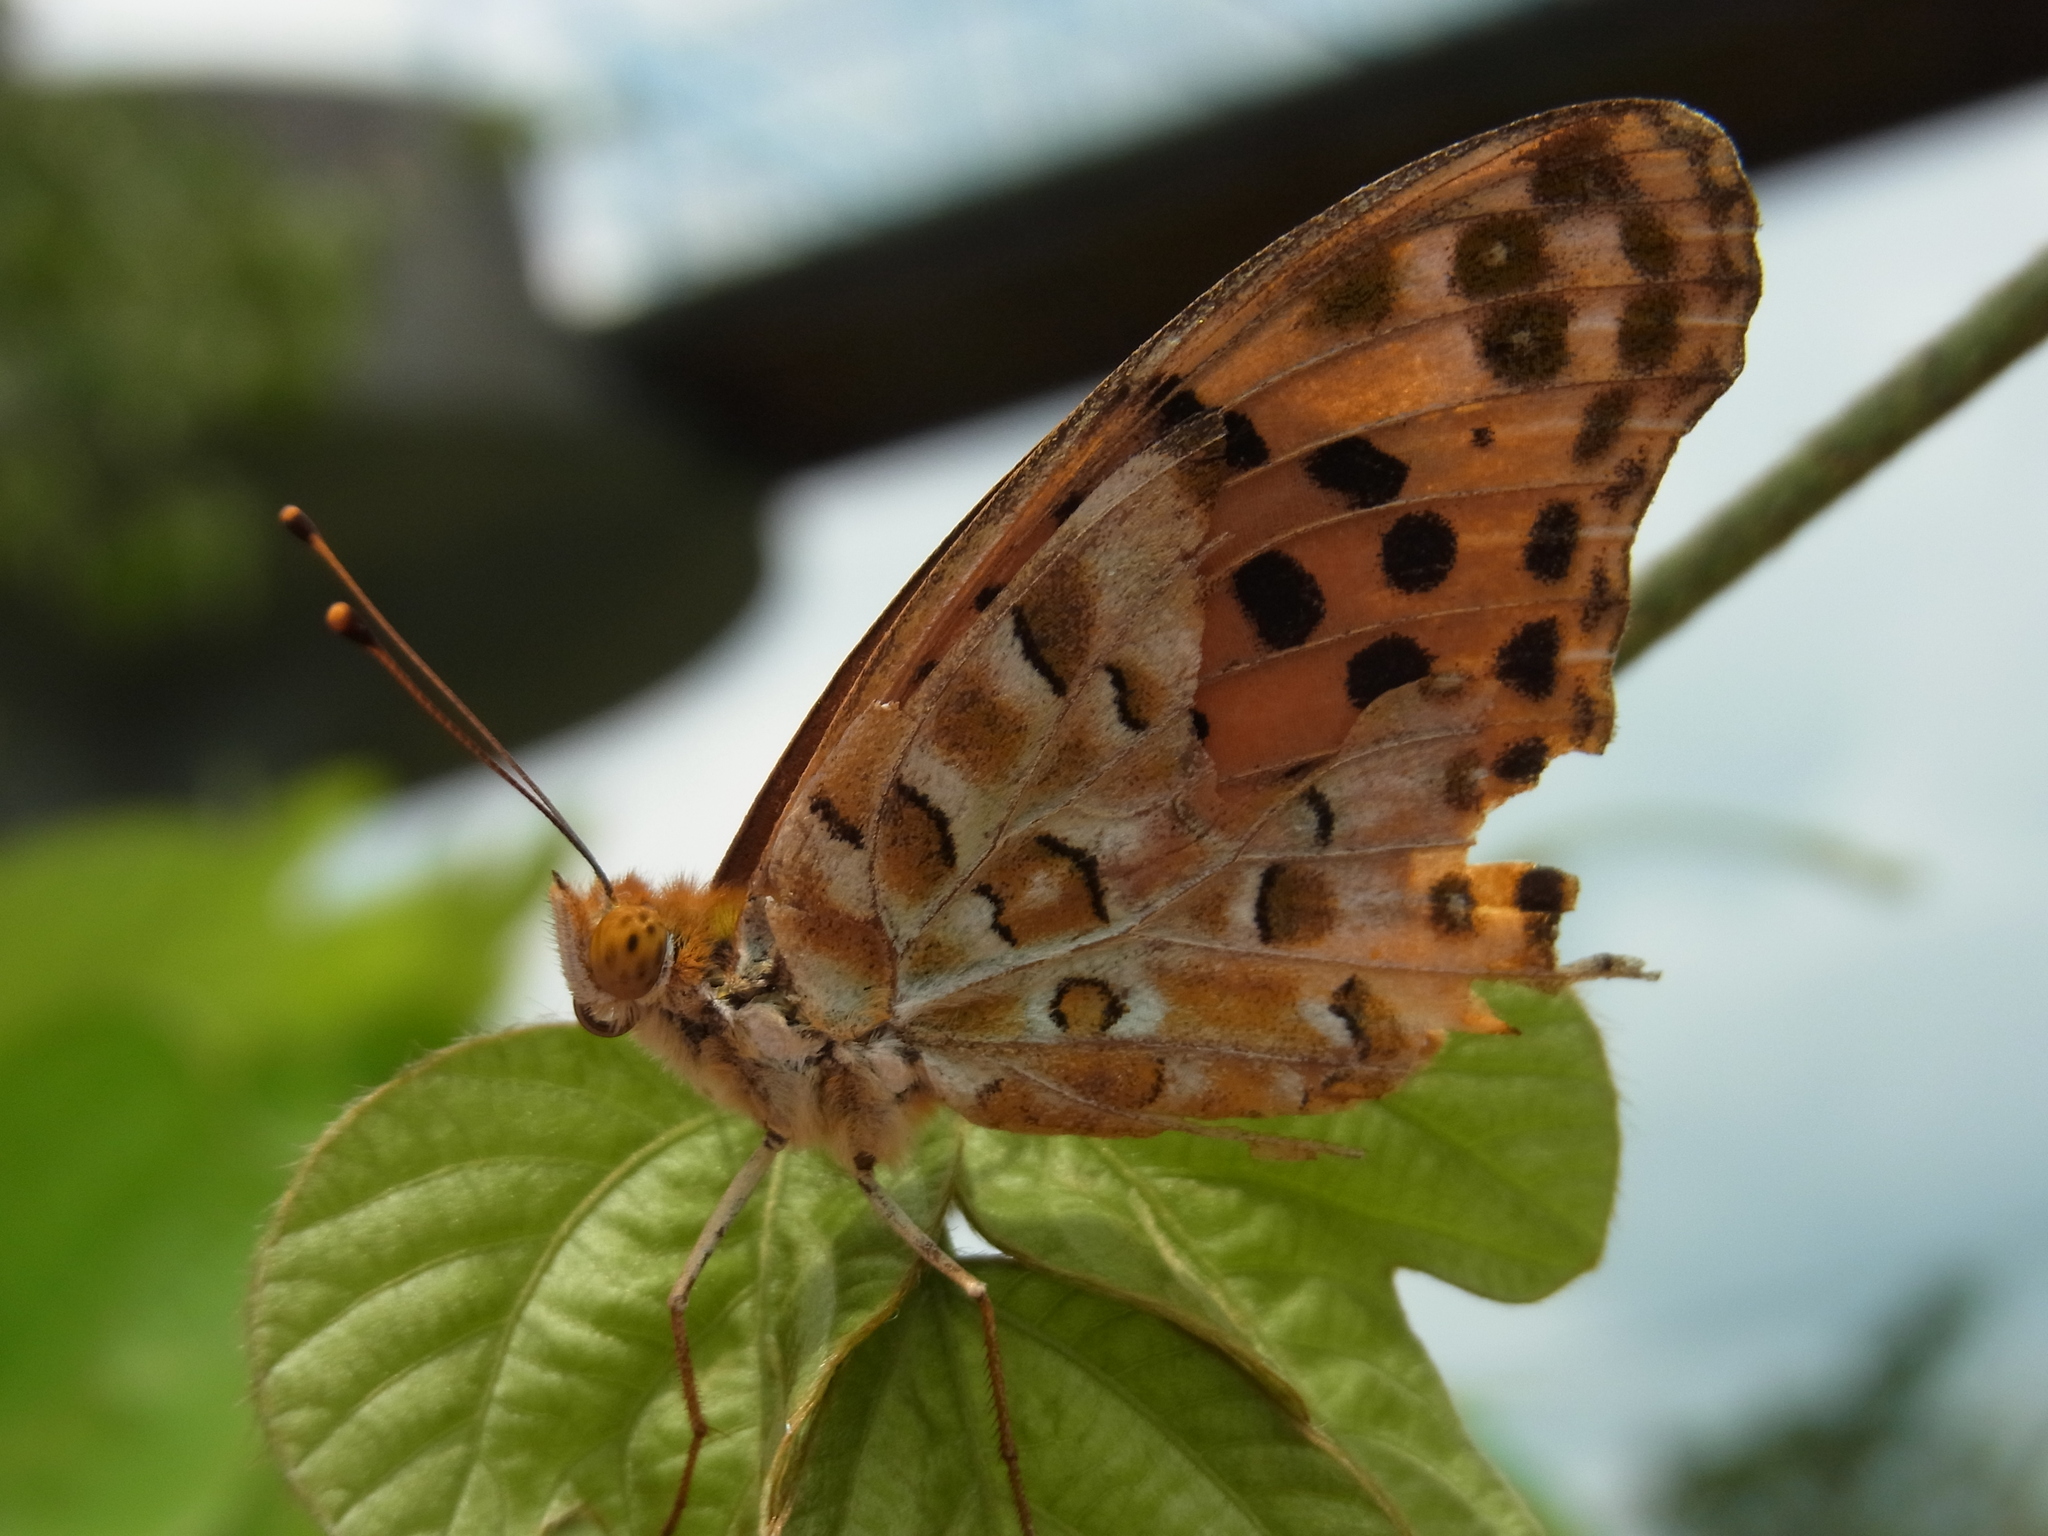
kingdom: Animalia
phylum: Arthropoda
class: Insecta
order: Lepidoptera
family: Nymphalidae
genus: Argynnis
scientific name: Argynnis hyperbius
